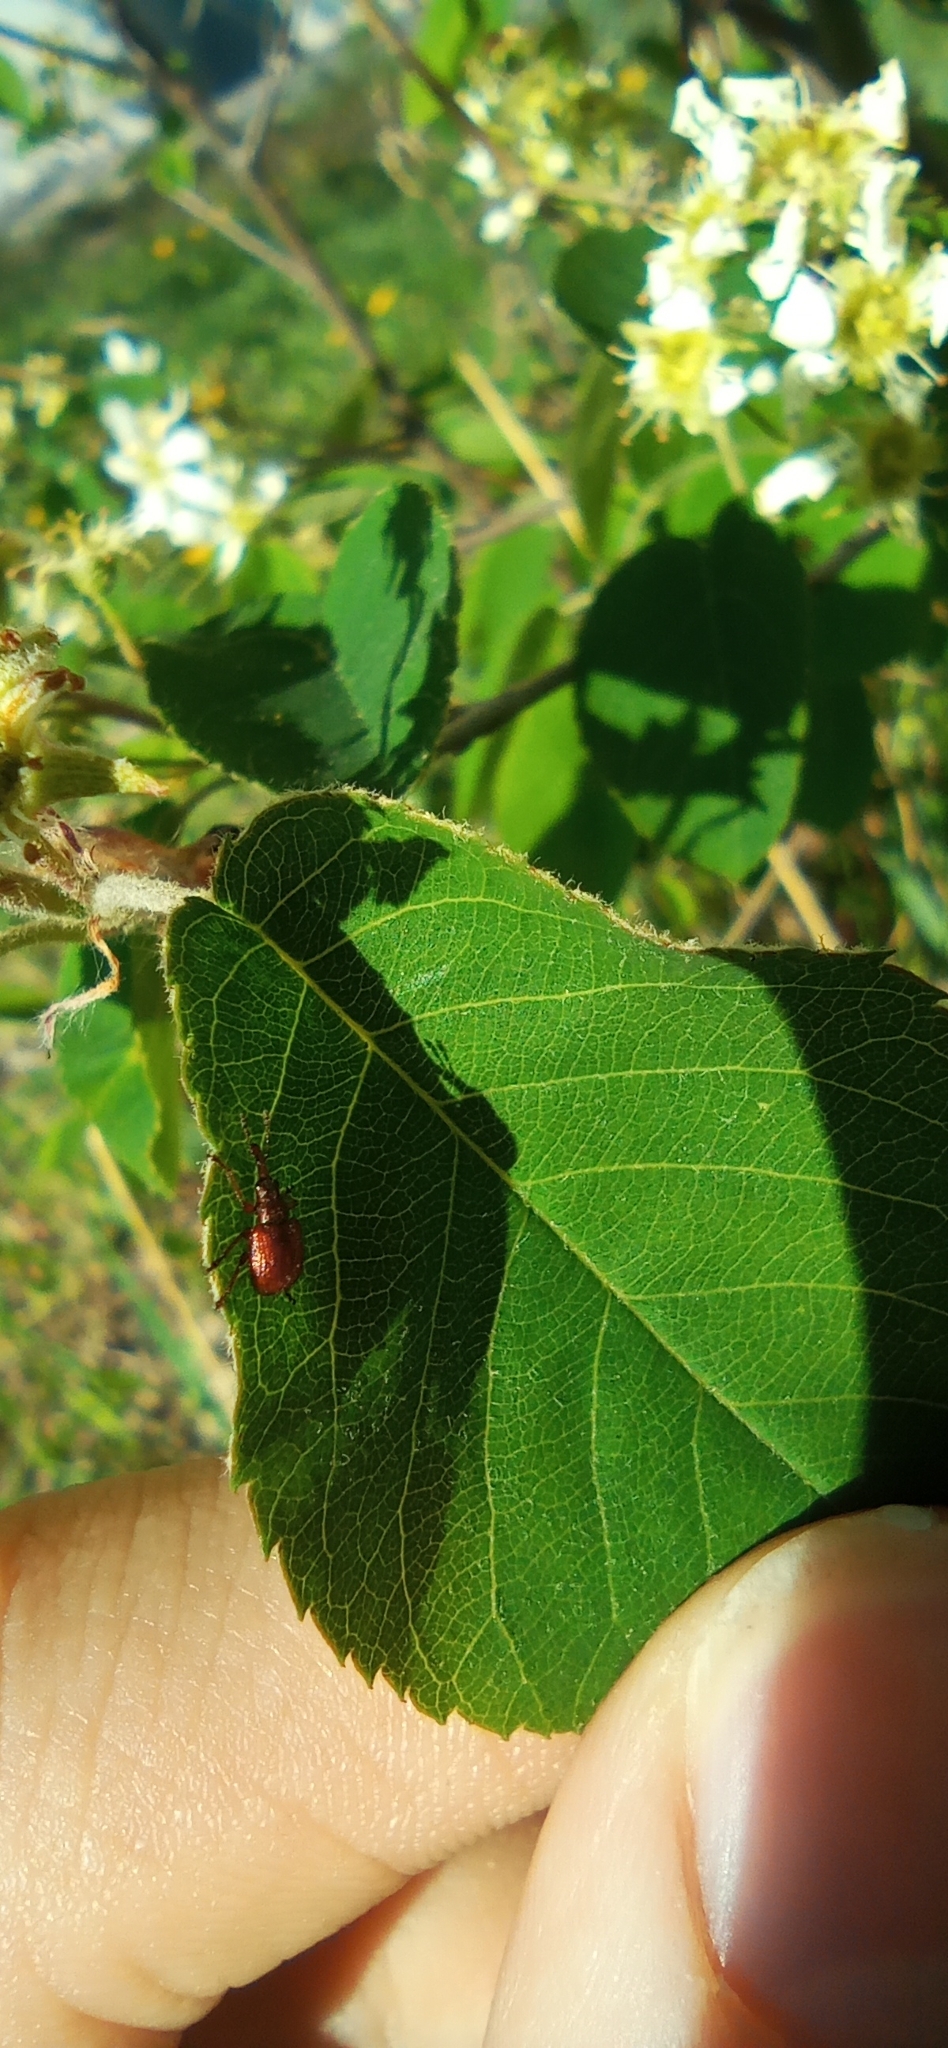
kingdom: Animalia
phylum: Arthropoda
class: Insecta
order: Coleoptera
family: Rhynchitidae
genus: Tatianaerhynchites
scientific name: Tatianaerhynchites aequatus
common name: Apple fruit rhynchites
